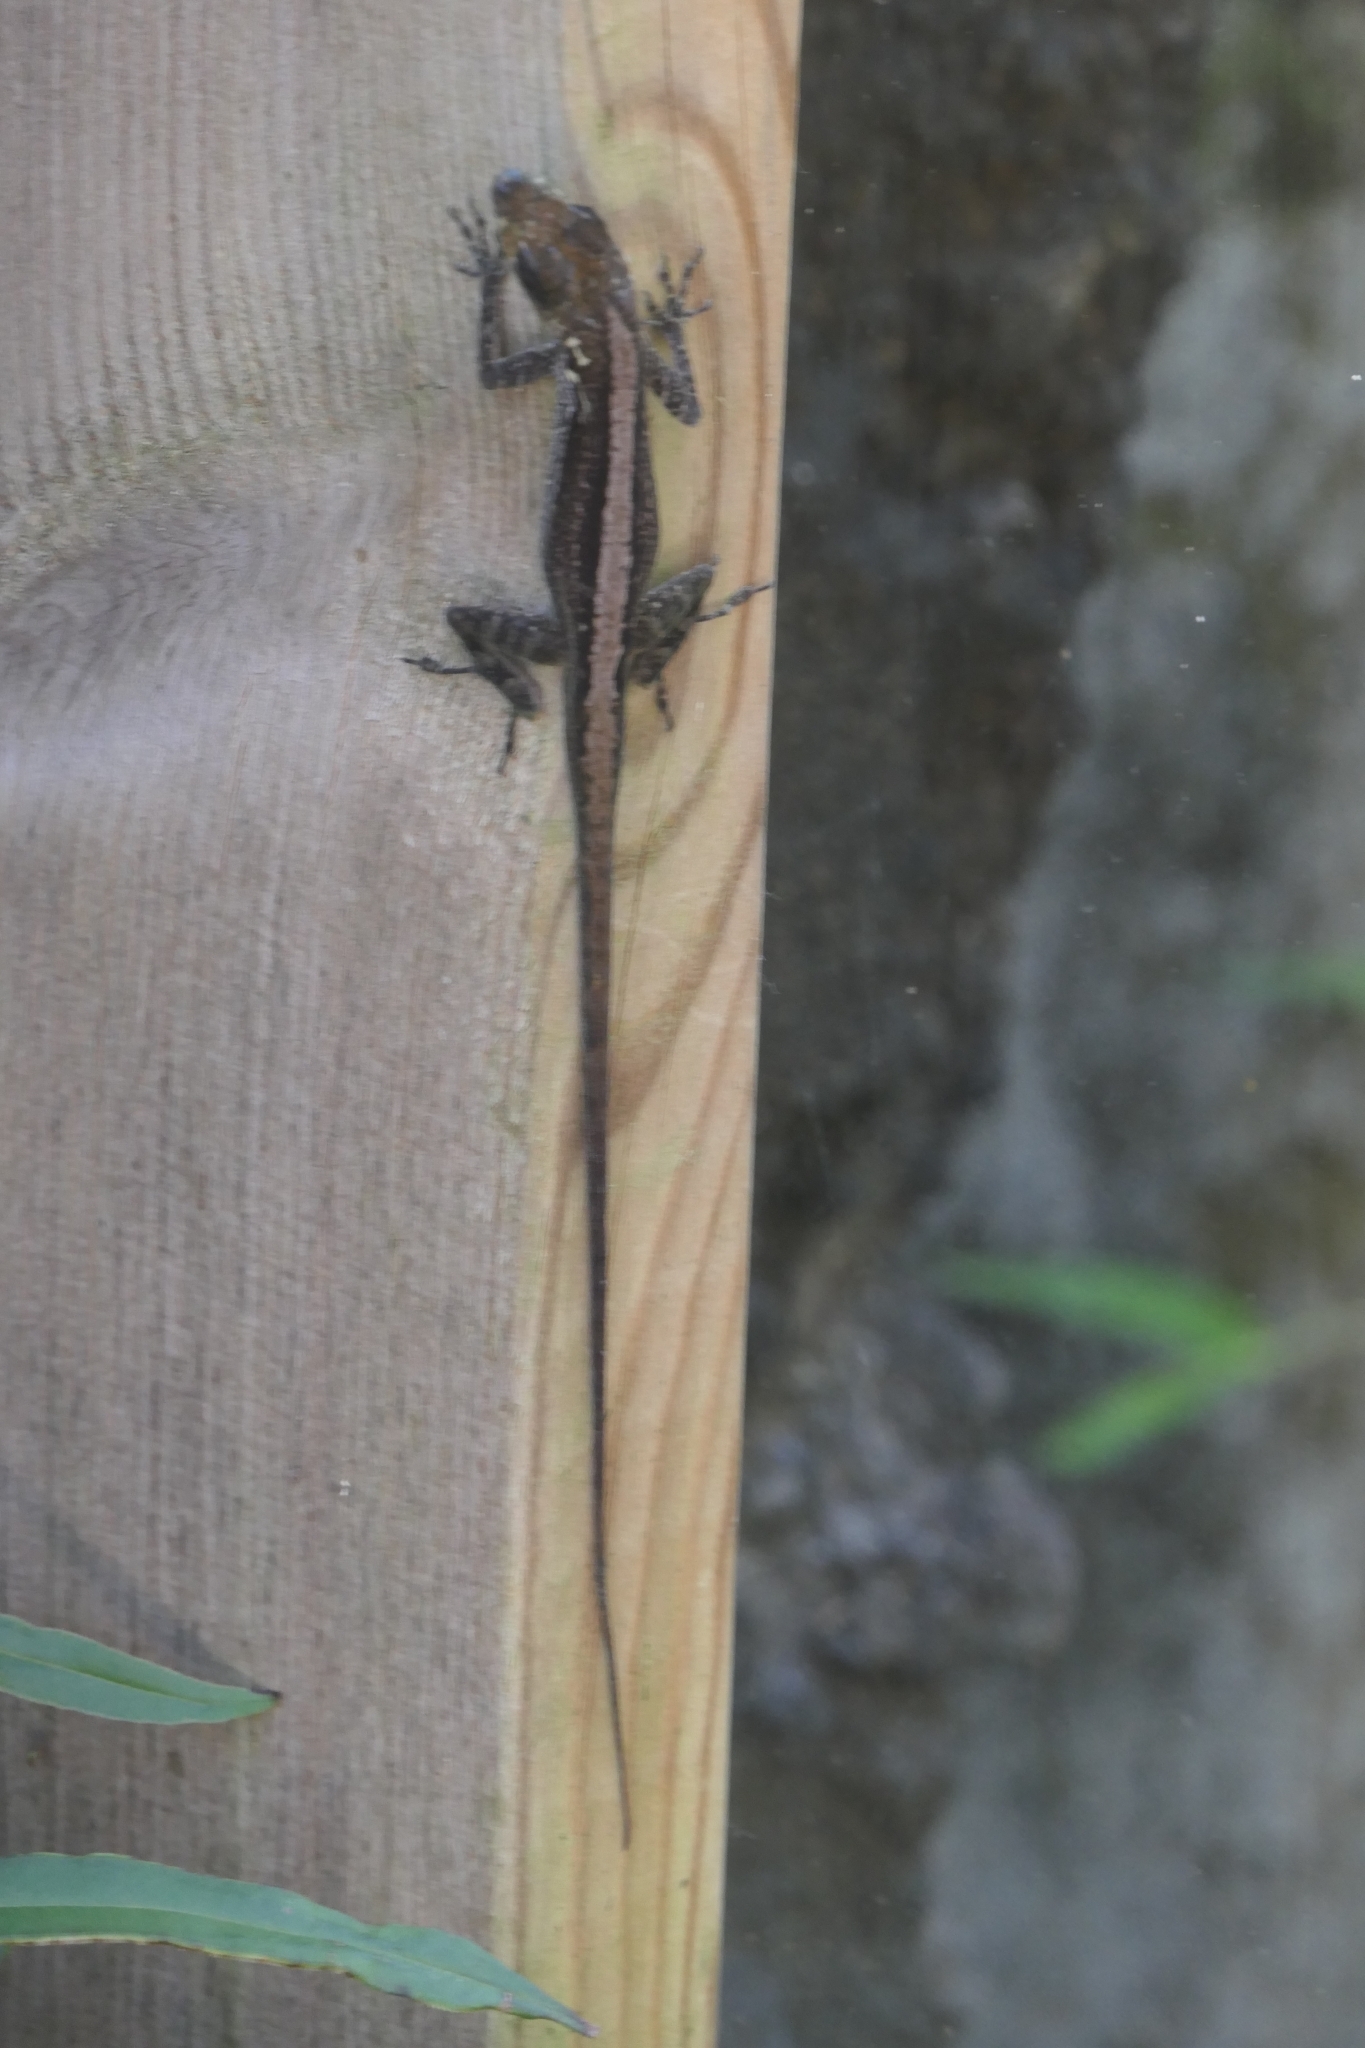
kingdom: Animalia
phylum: Chordata
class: Squamata
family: Dactyloidae
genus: Anolis
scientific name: Anolis roquet
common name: Martinique anole
